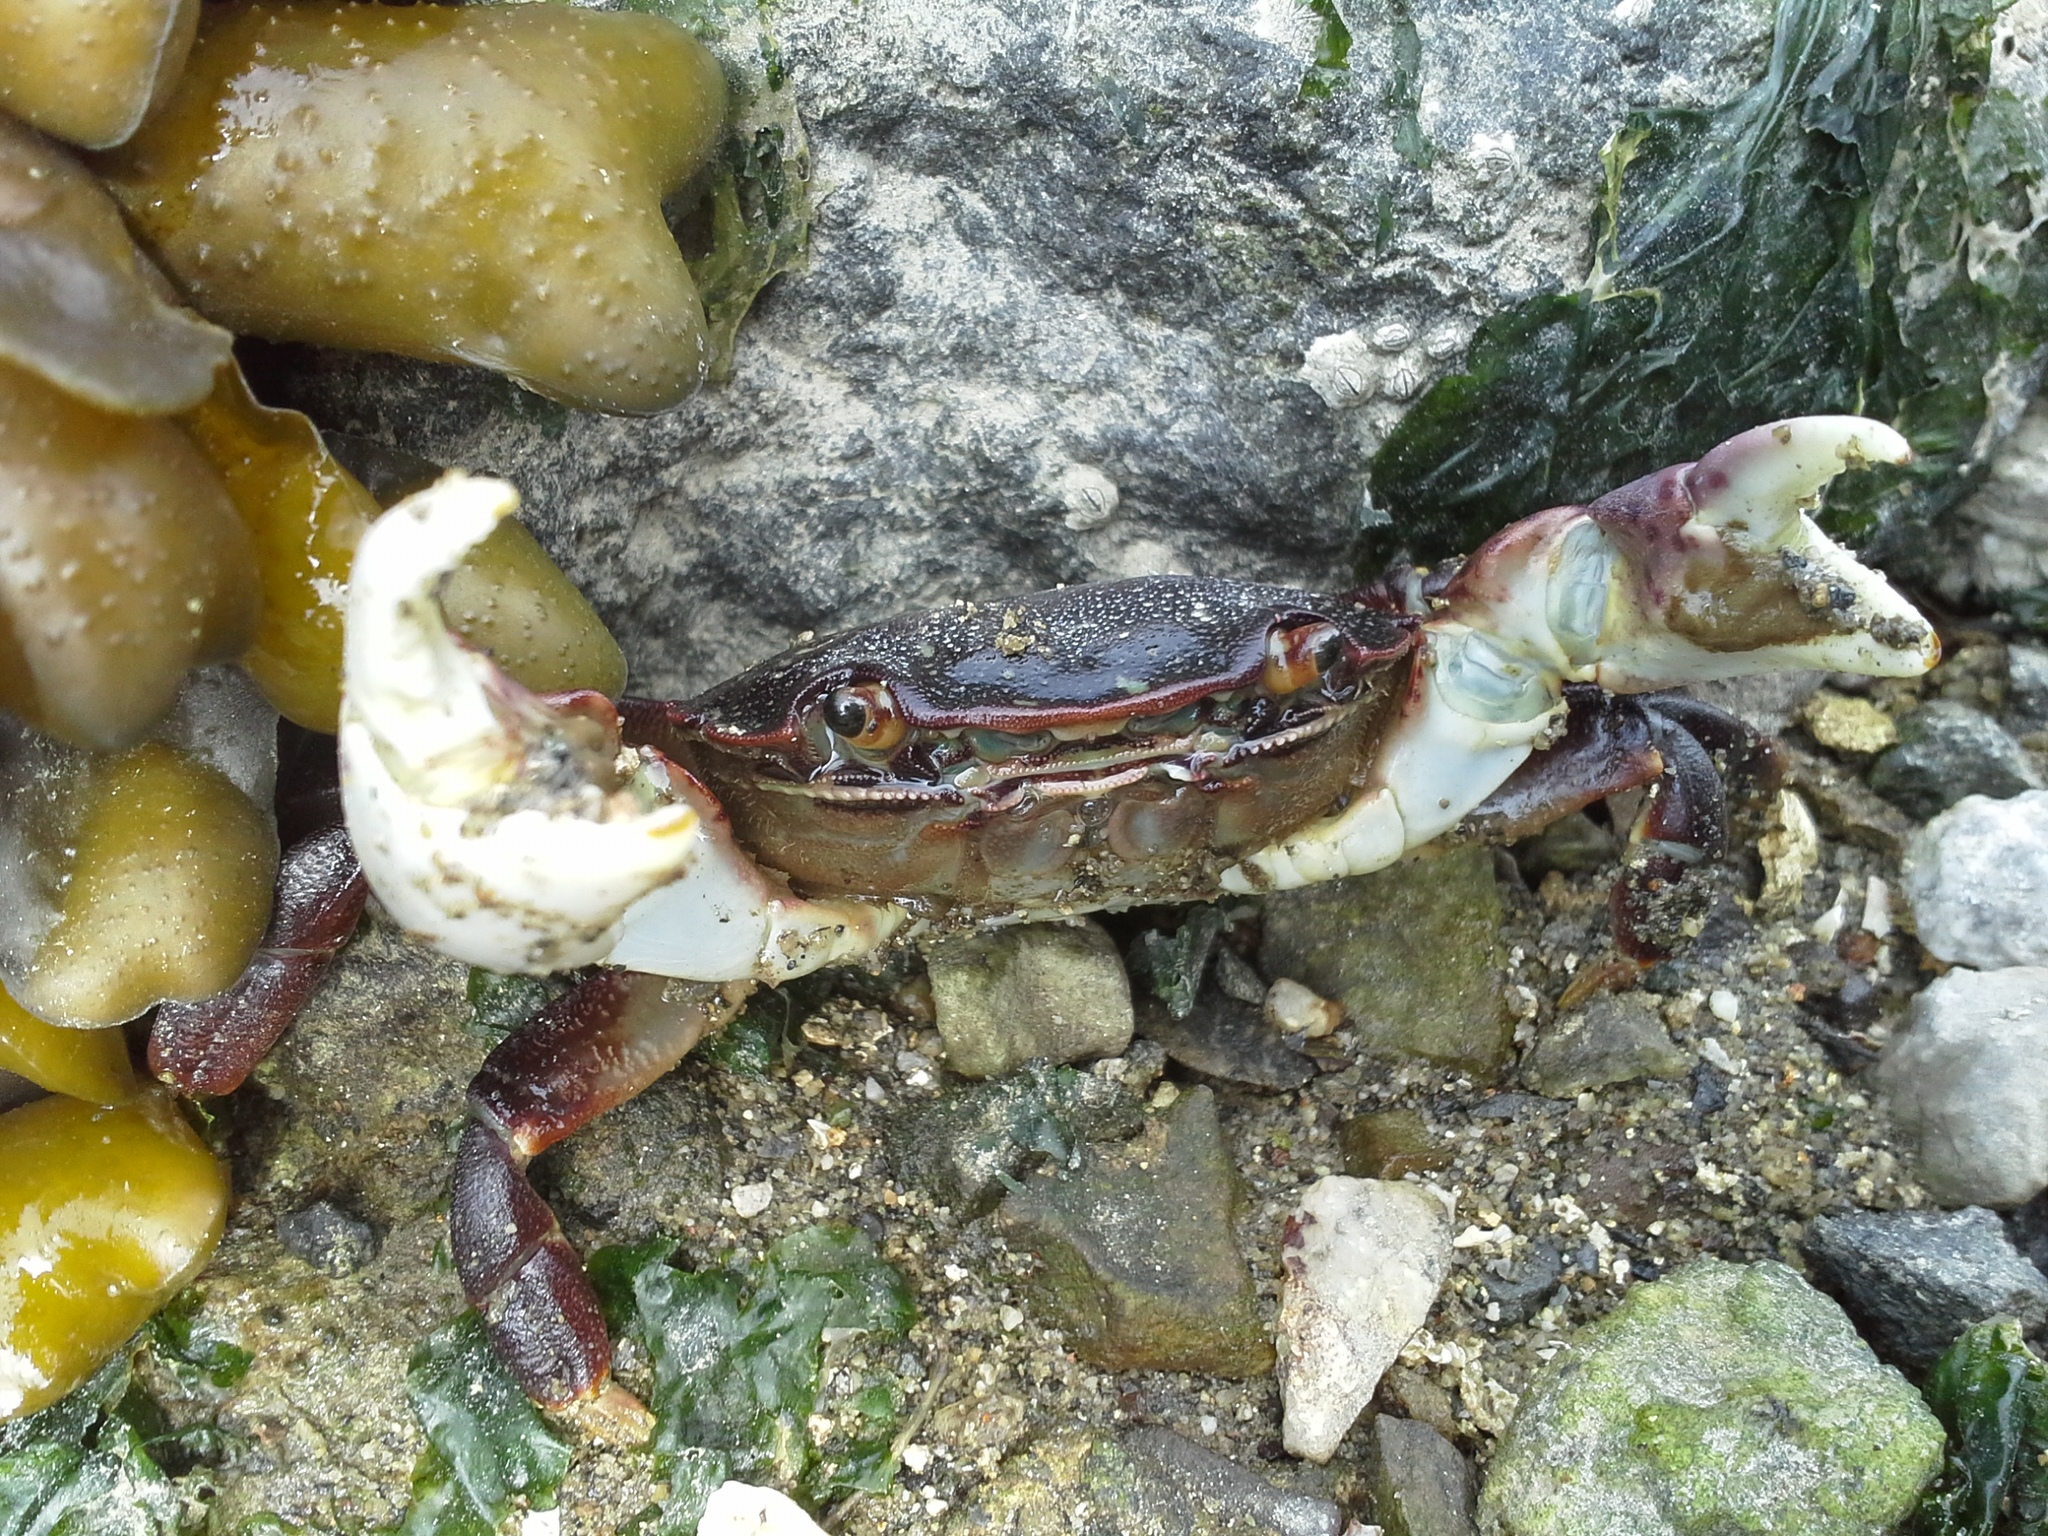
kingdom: Animalia
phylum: Arthropoda
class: Malacostraca
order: Decapoda
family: Varunidae
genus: Hemigrapsus
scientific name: Hemigrapsus nudus
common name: Purple shore crab
